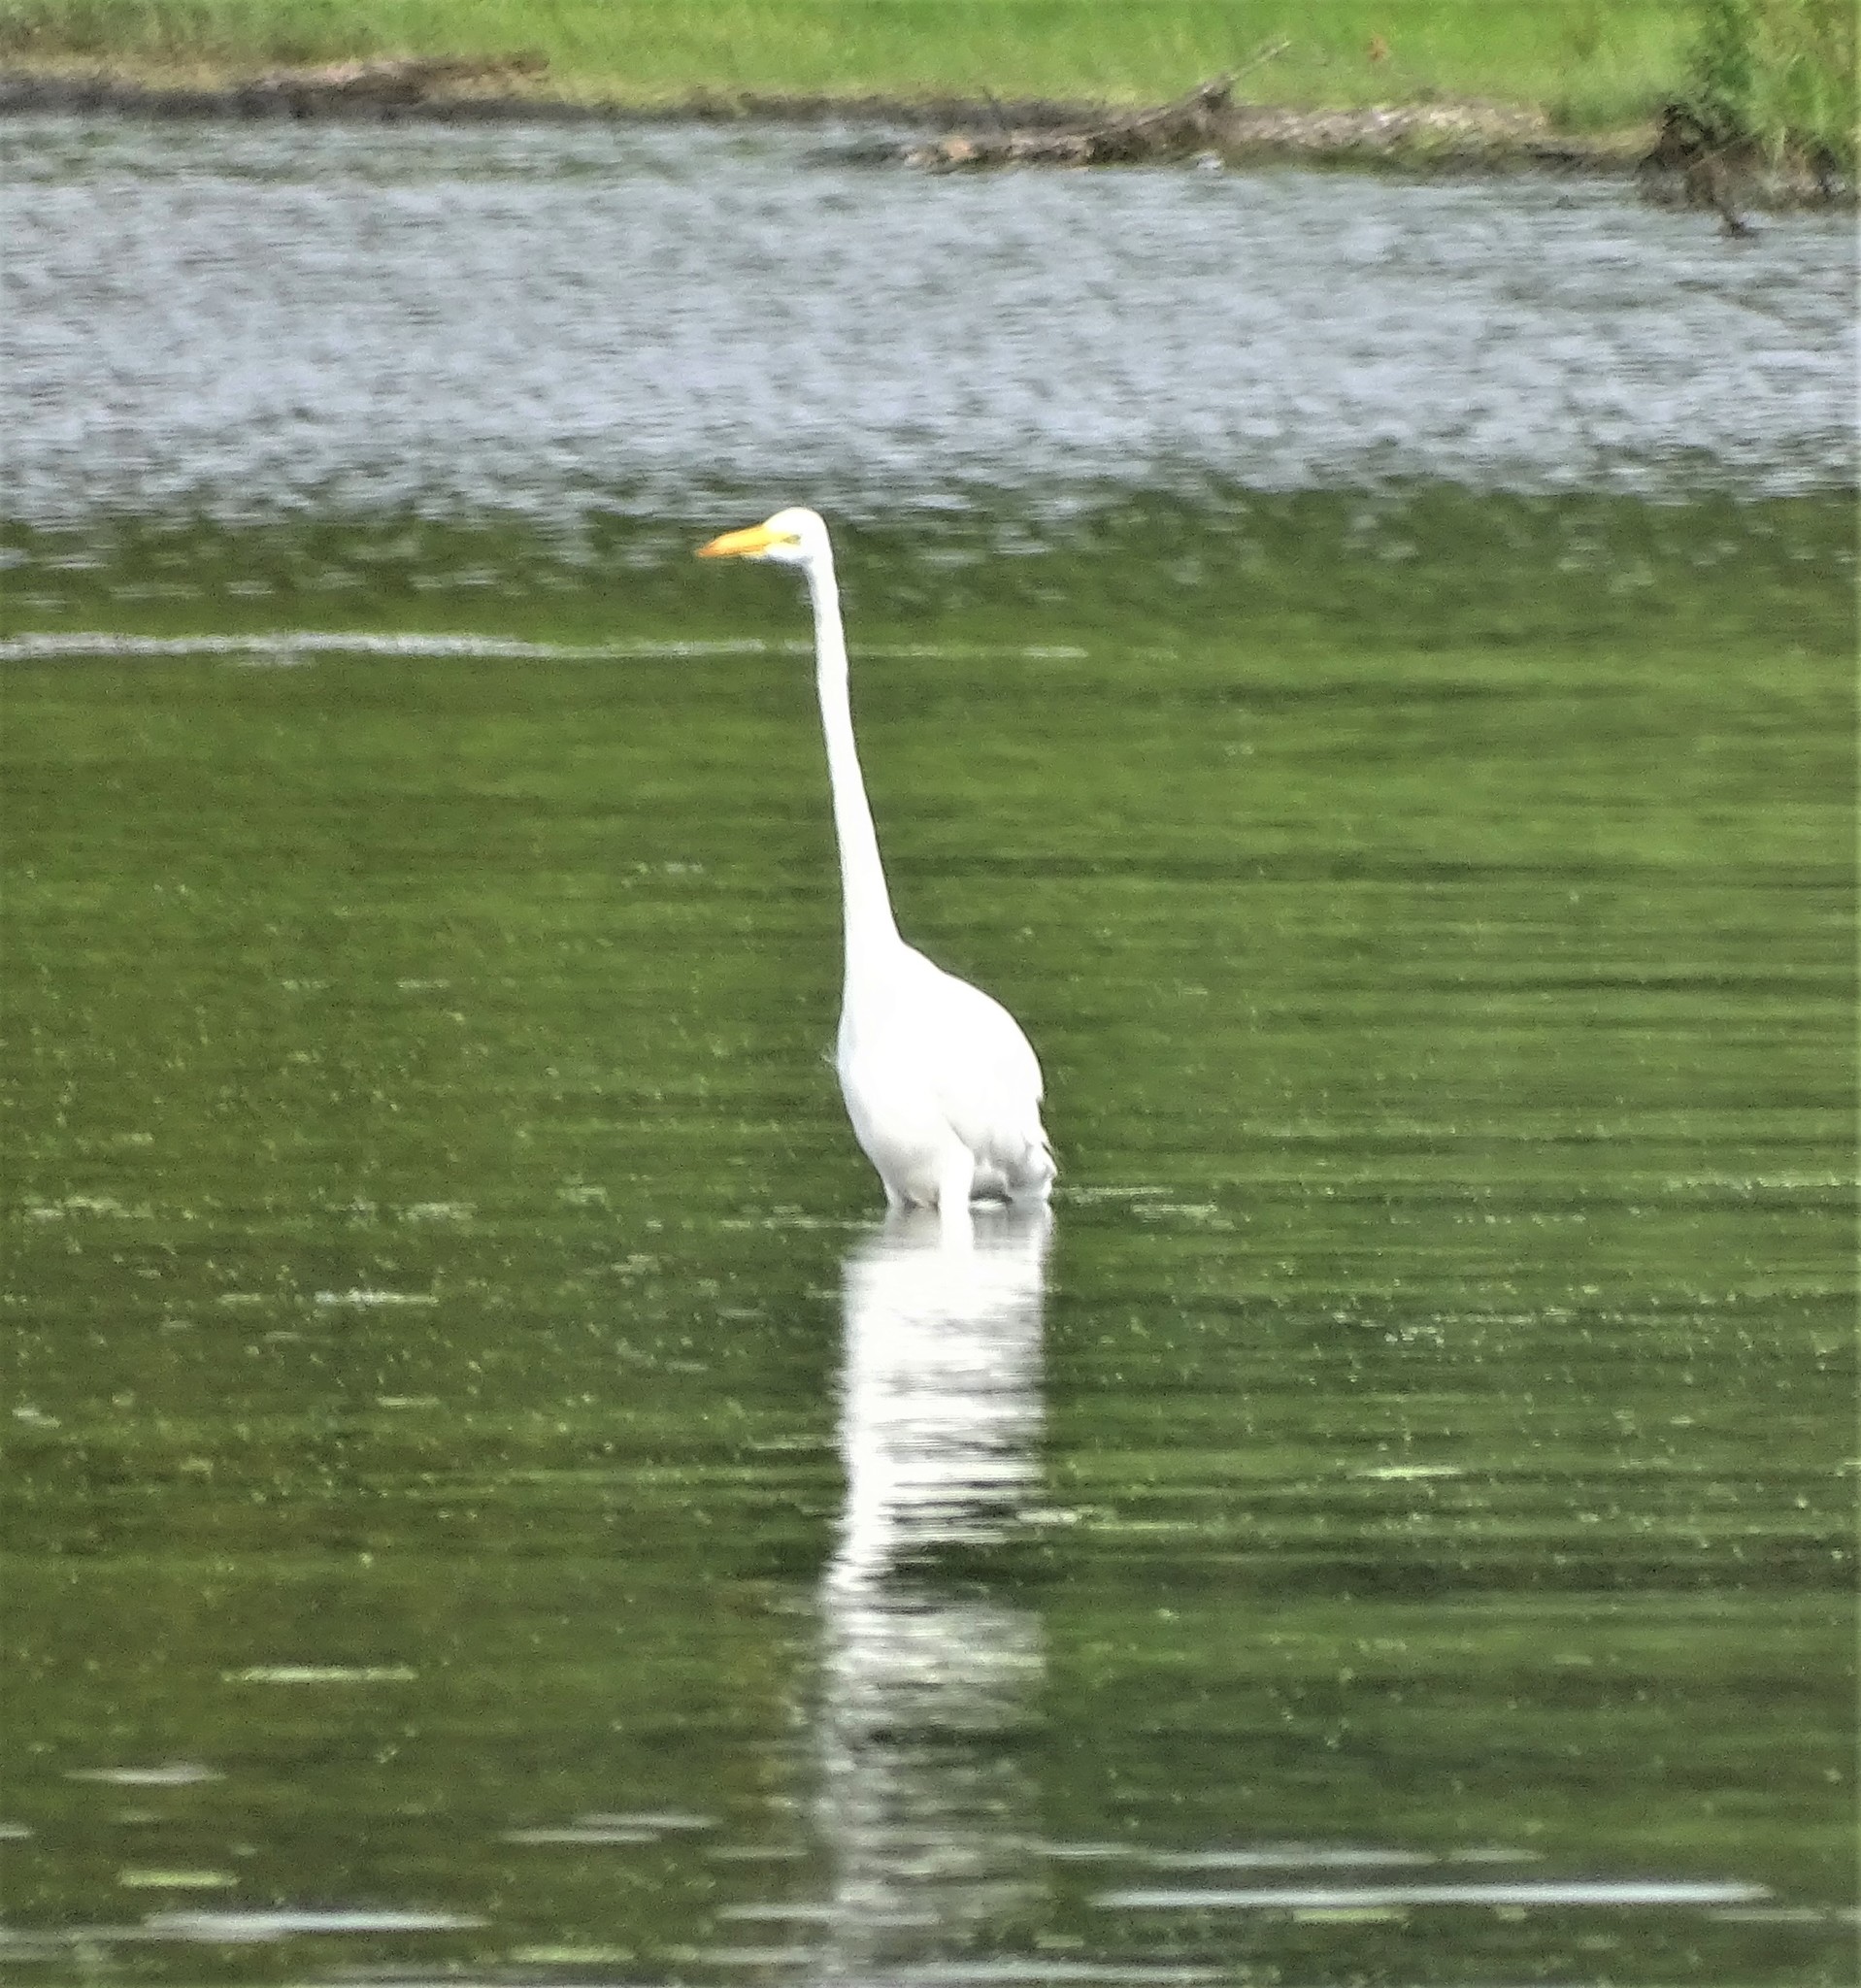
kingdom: Animalia
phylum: Chordata
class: Aves
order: Pelecaniformes
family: Ardeidae
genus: Ardea
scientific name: Ardea alba
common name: Great egret
